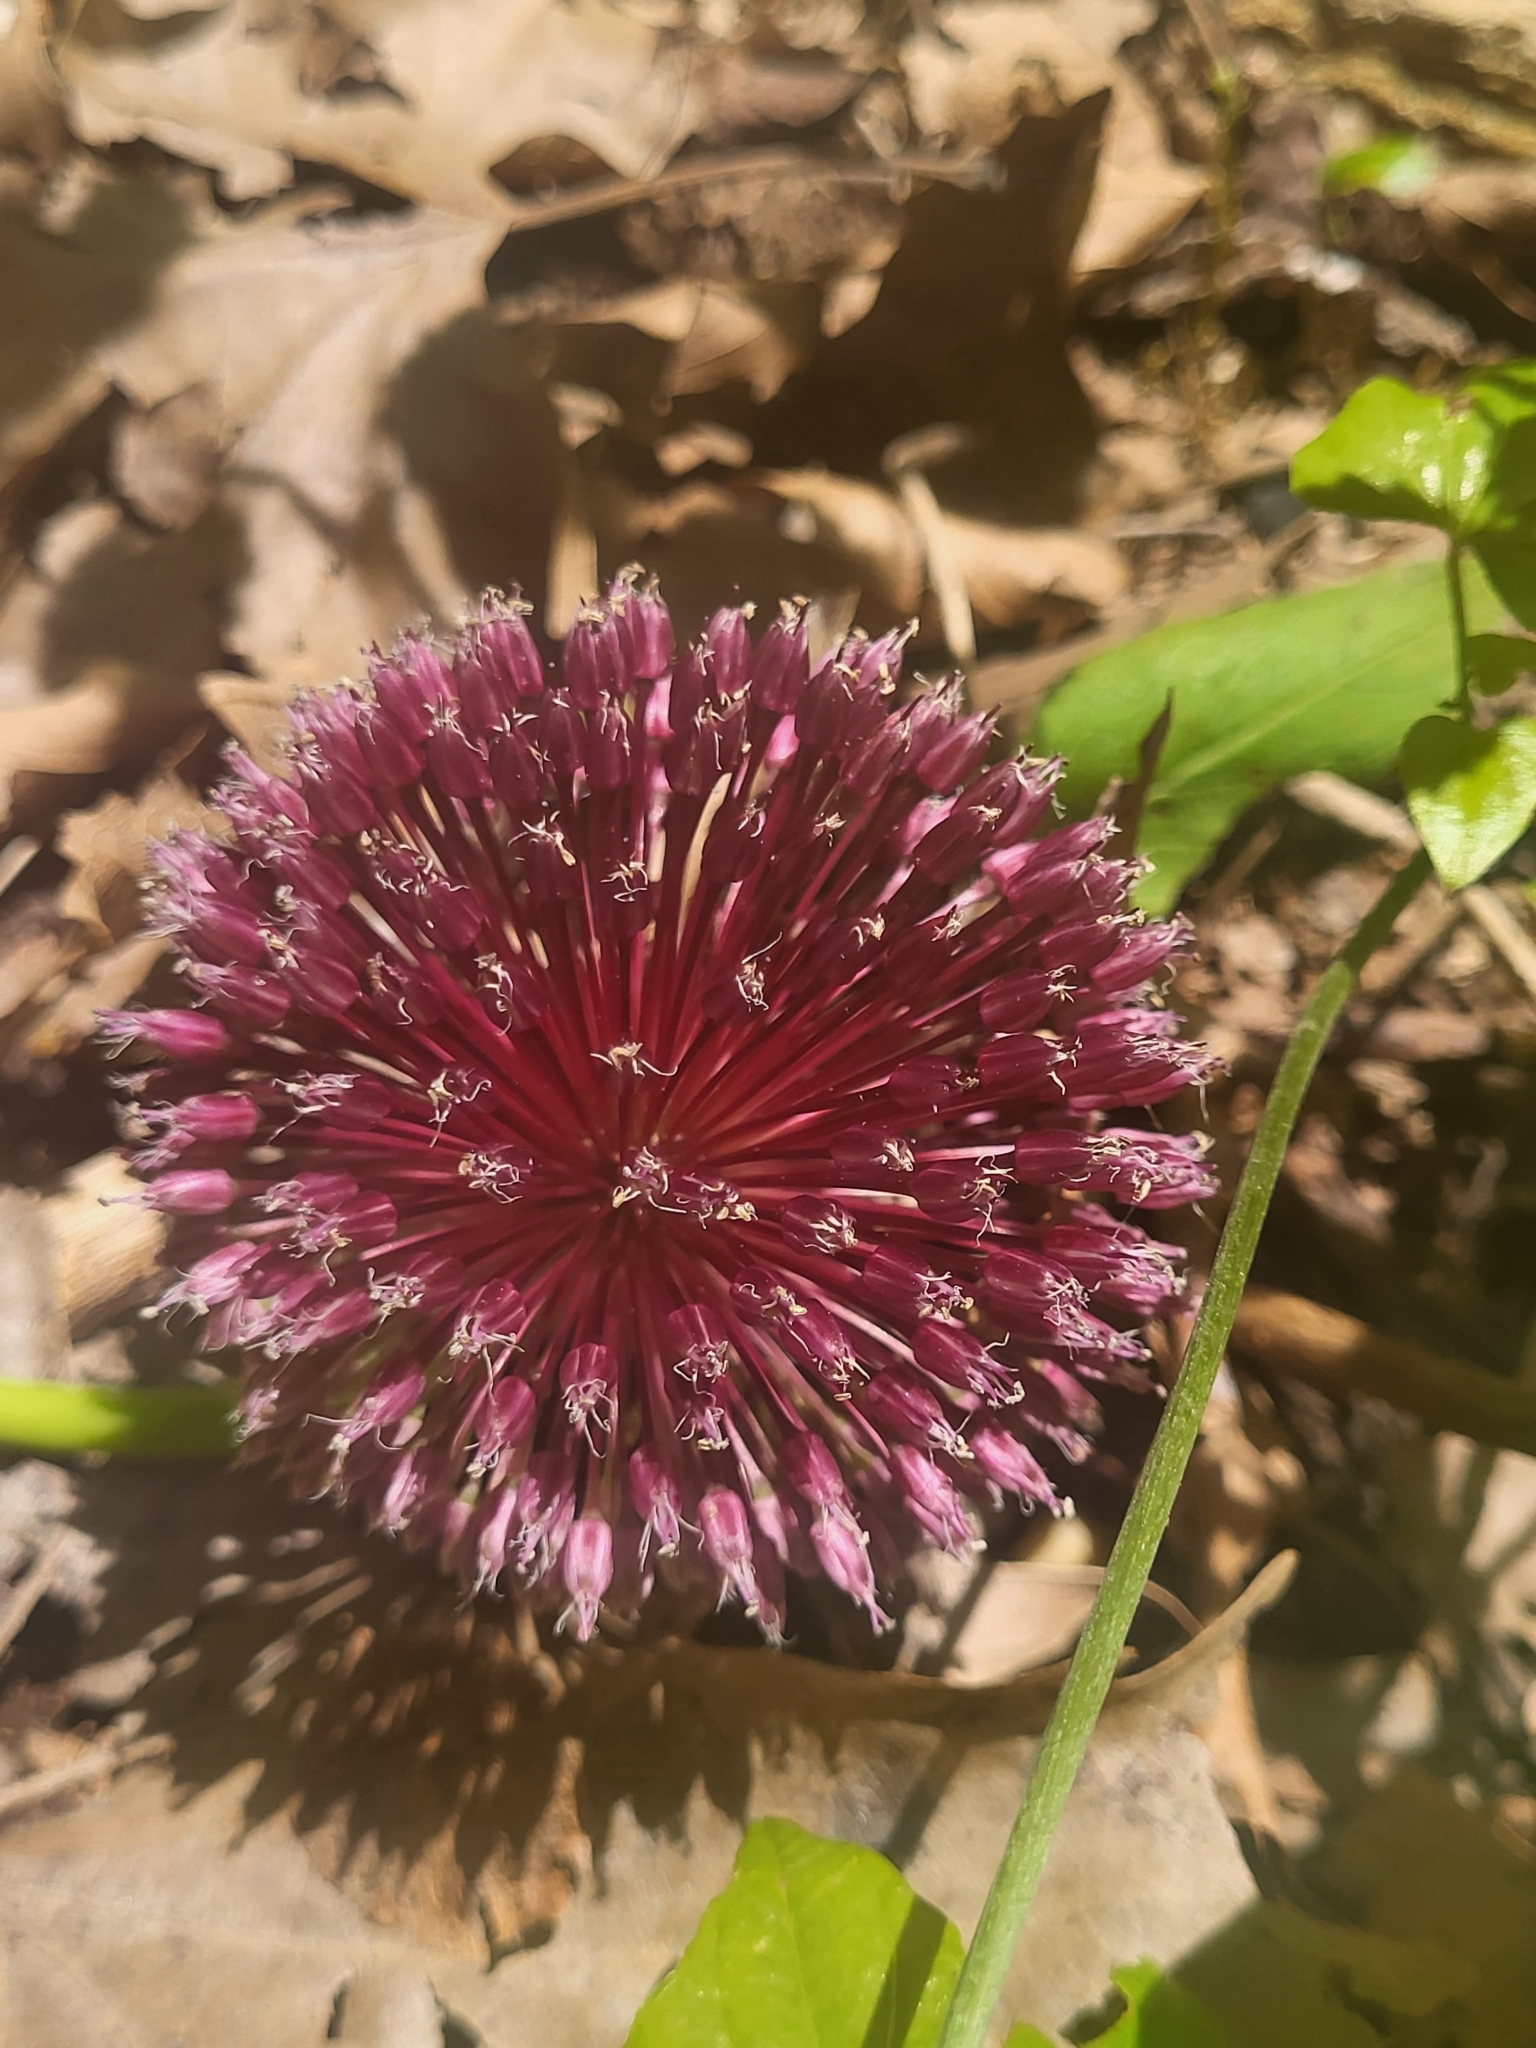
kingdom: Plantae
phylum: Tracheophyta
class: Liliopsida
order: Asparagales
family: Amaryllidaceae
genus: Allium
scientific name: Allium amethystinum
